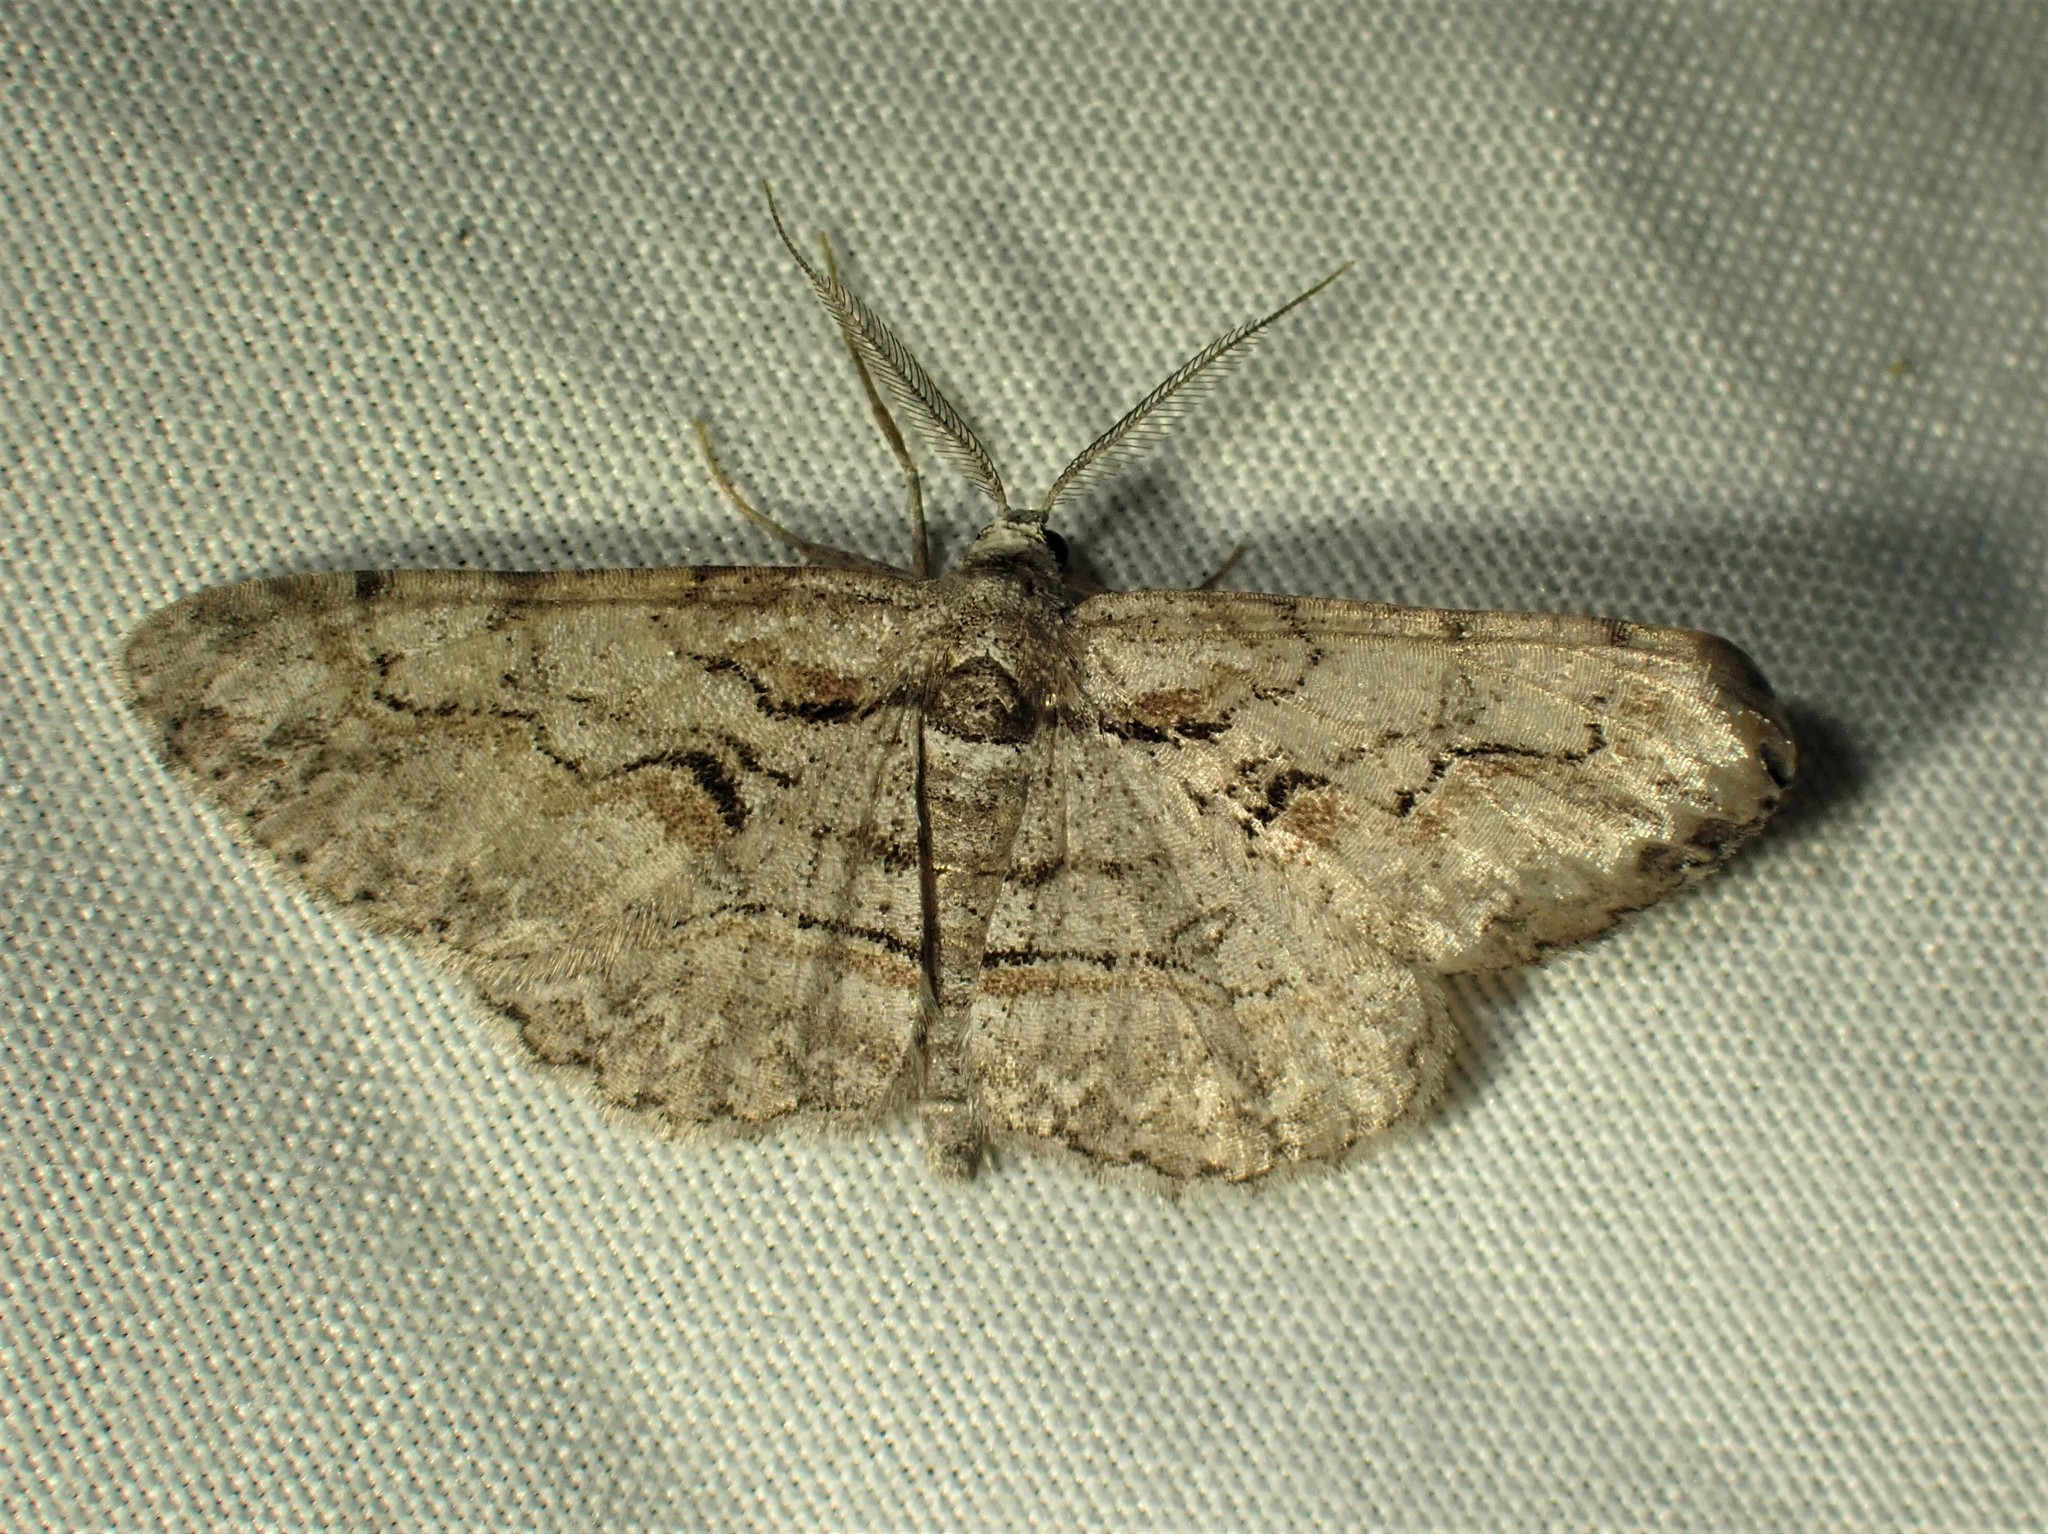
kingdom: Animalia
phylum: Arthropoda
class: Insecta
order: Lepidoptera
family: Geometridae
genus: Iridopsis
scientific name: Iridopsis humaria
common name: Small purplish gray
